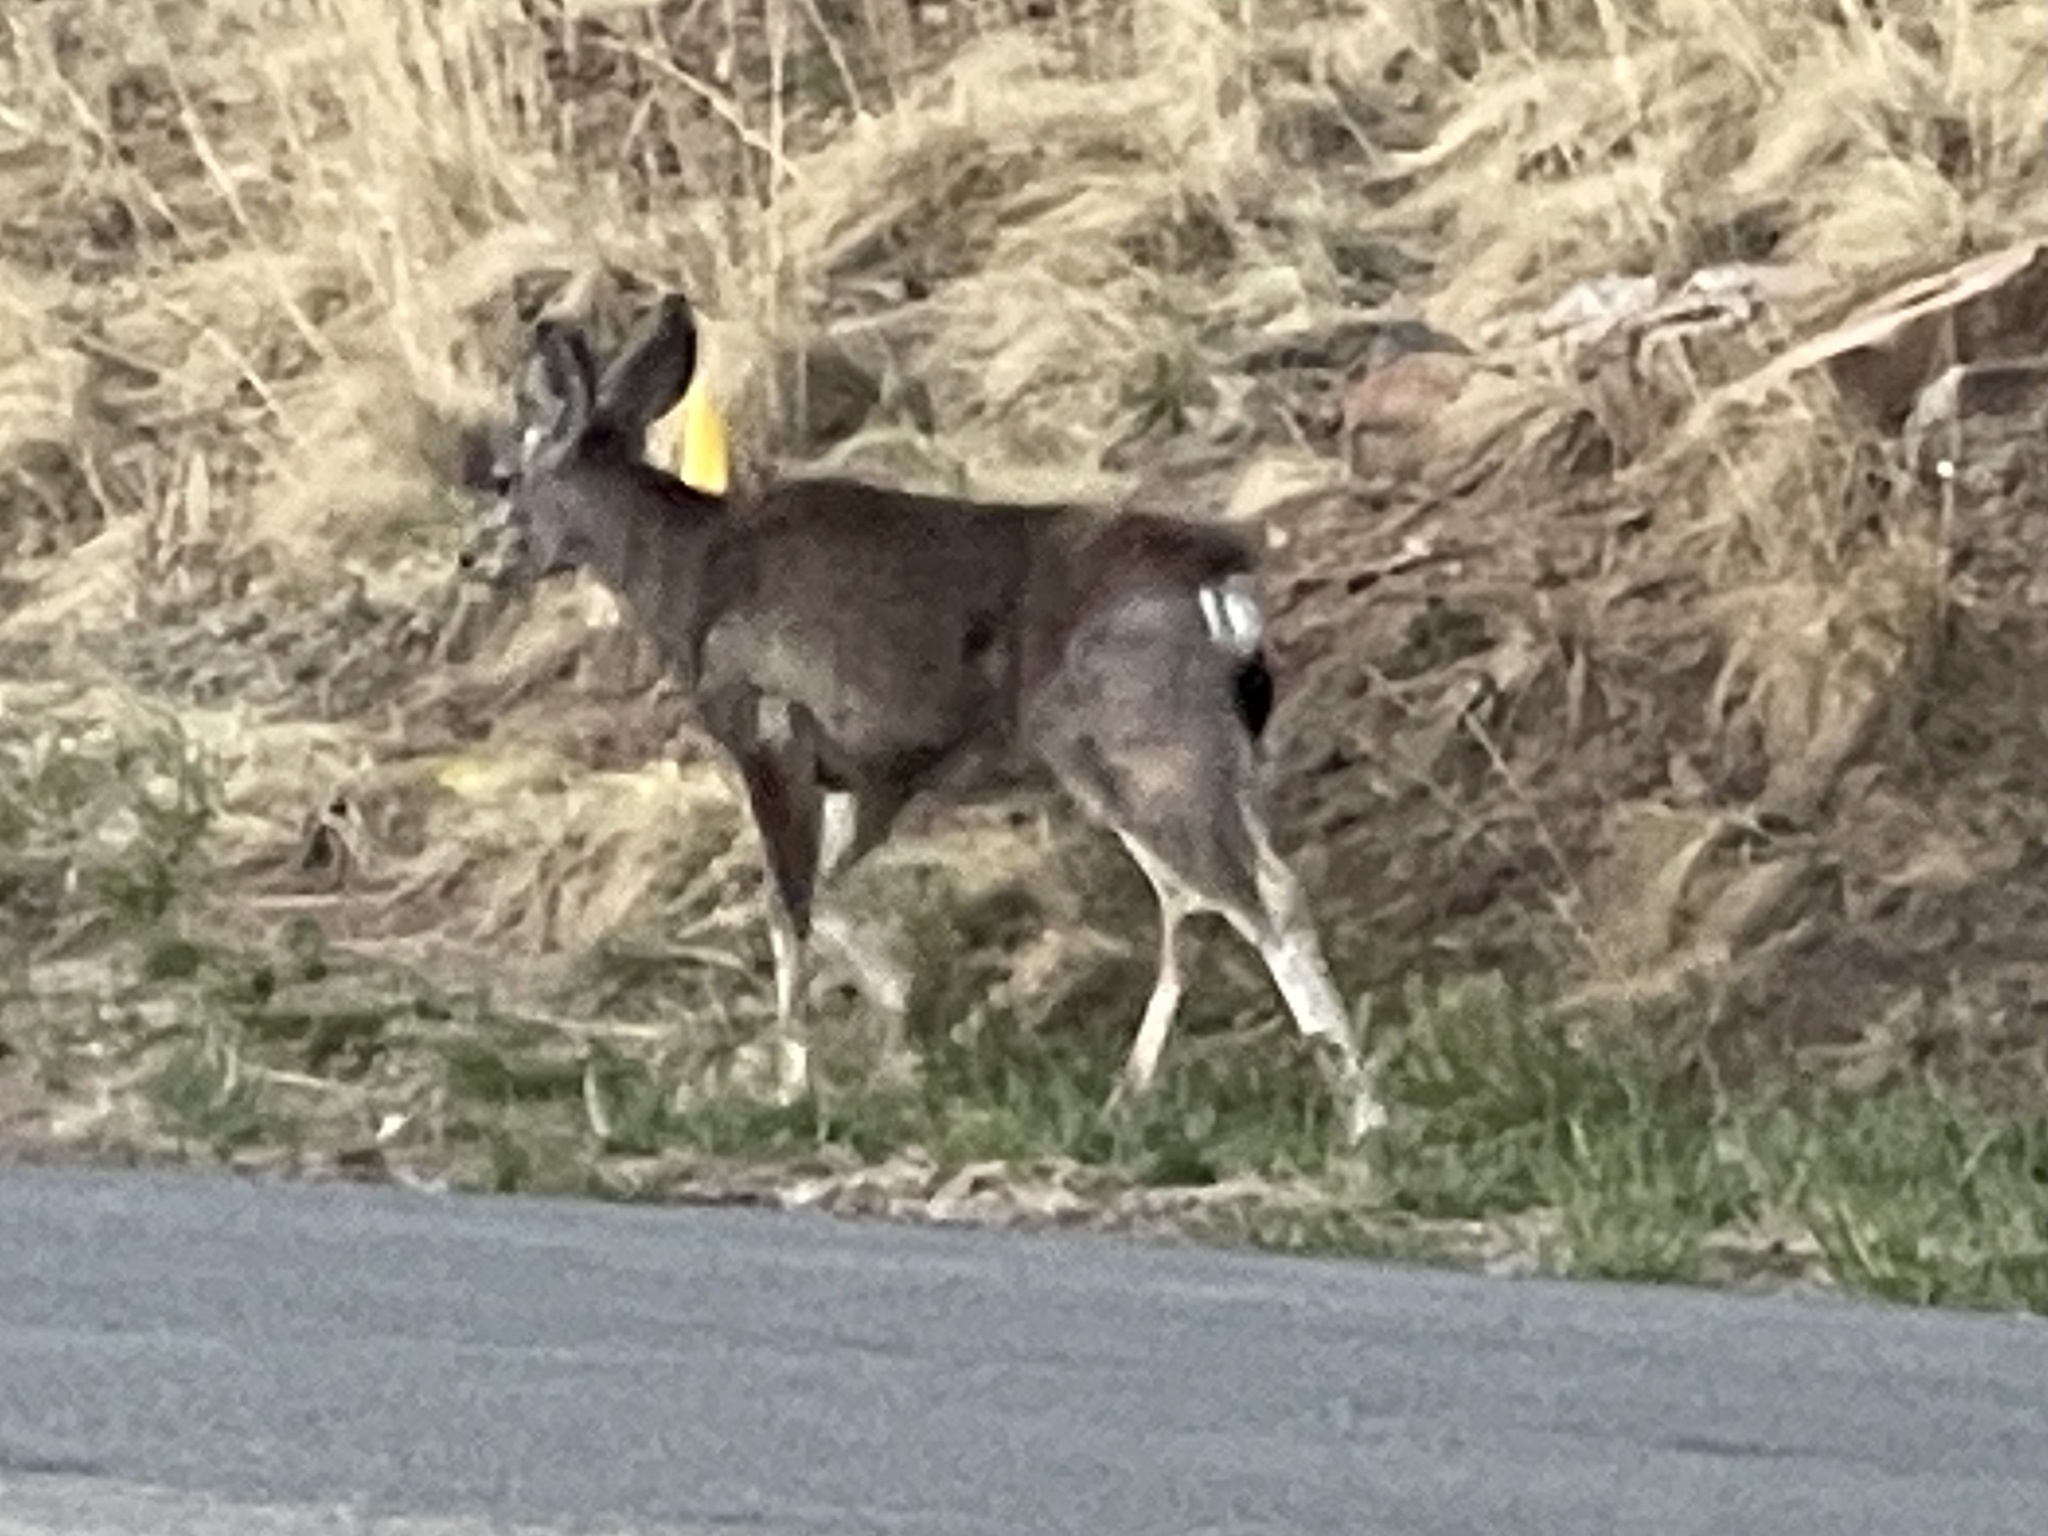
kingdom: Animalia
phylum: Chordata
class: Mammalia
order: Artiodactyla
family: Cervidae
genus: Odocoileus
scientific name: Odocoileus hemionus
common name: Mule deer
